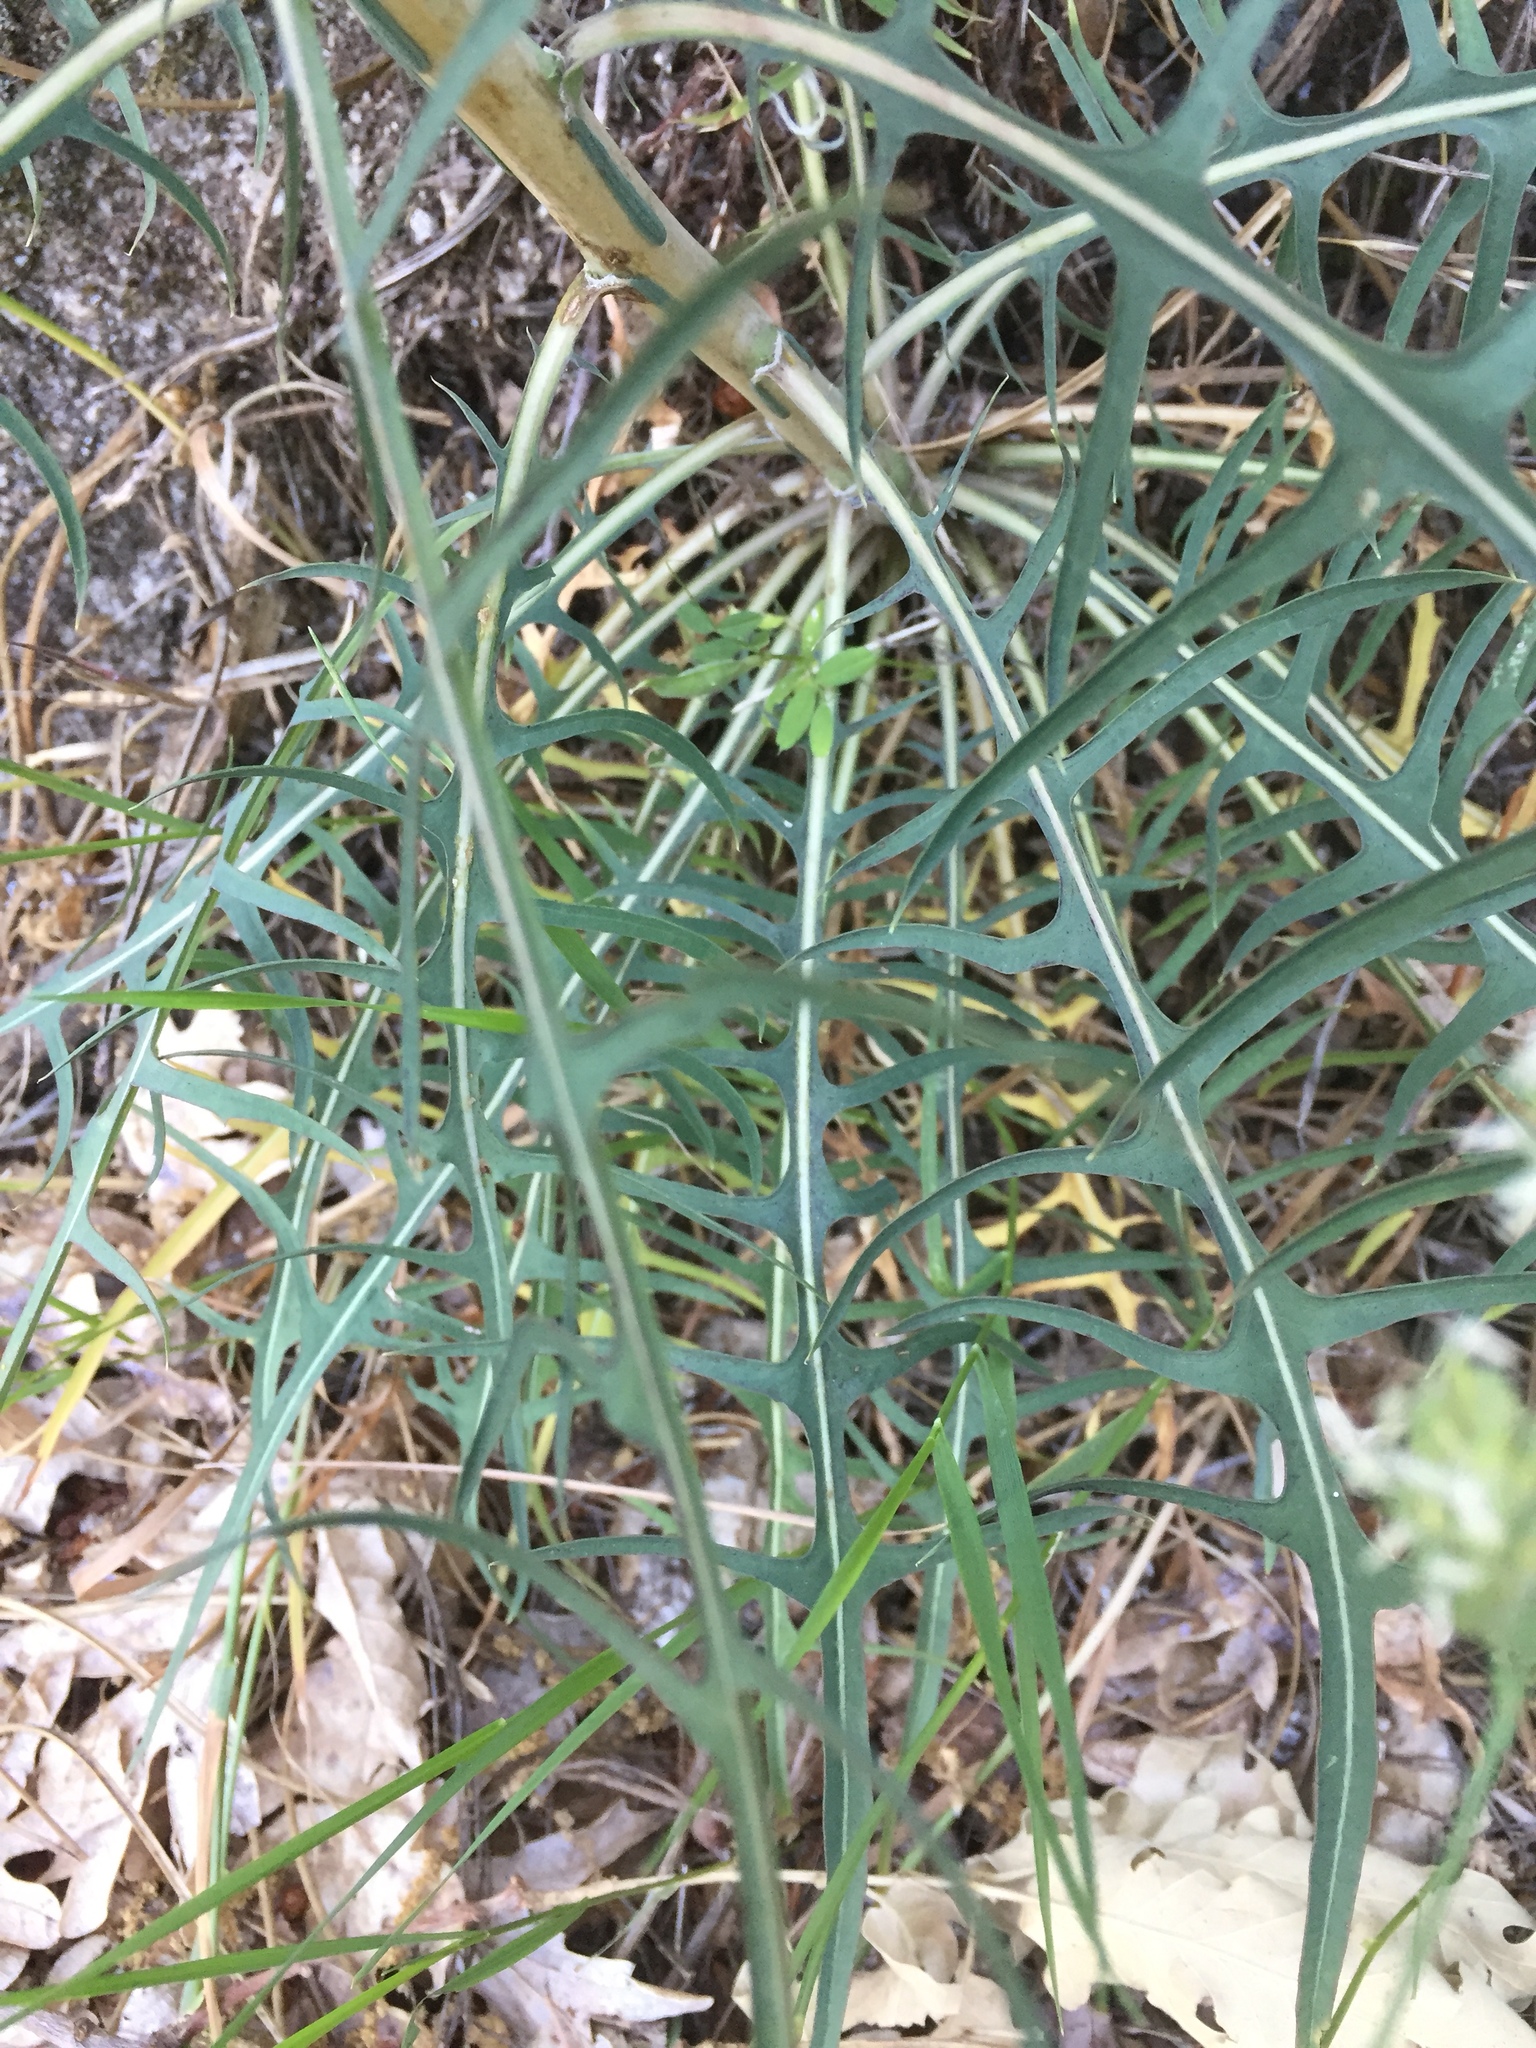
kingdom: Plantae
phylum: Tracheophyta
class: Magnoliopsida
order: Asterales
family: Asteraceae
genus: Lactuca
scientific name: Lactuca viminea
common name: Pliant lettuce
